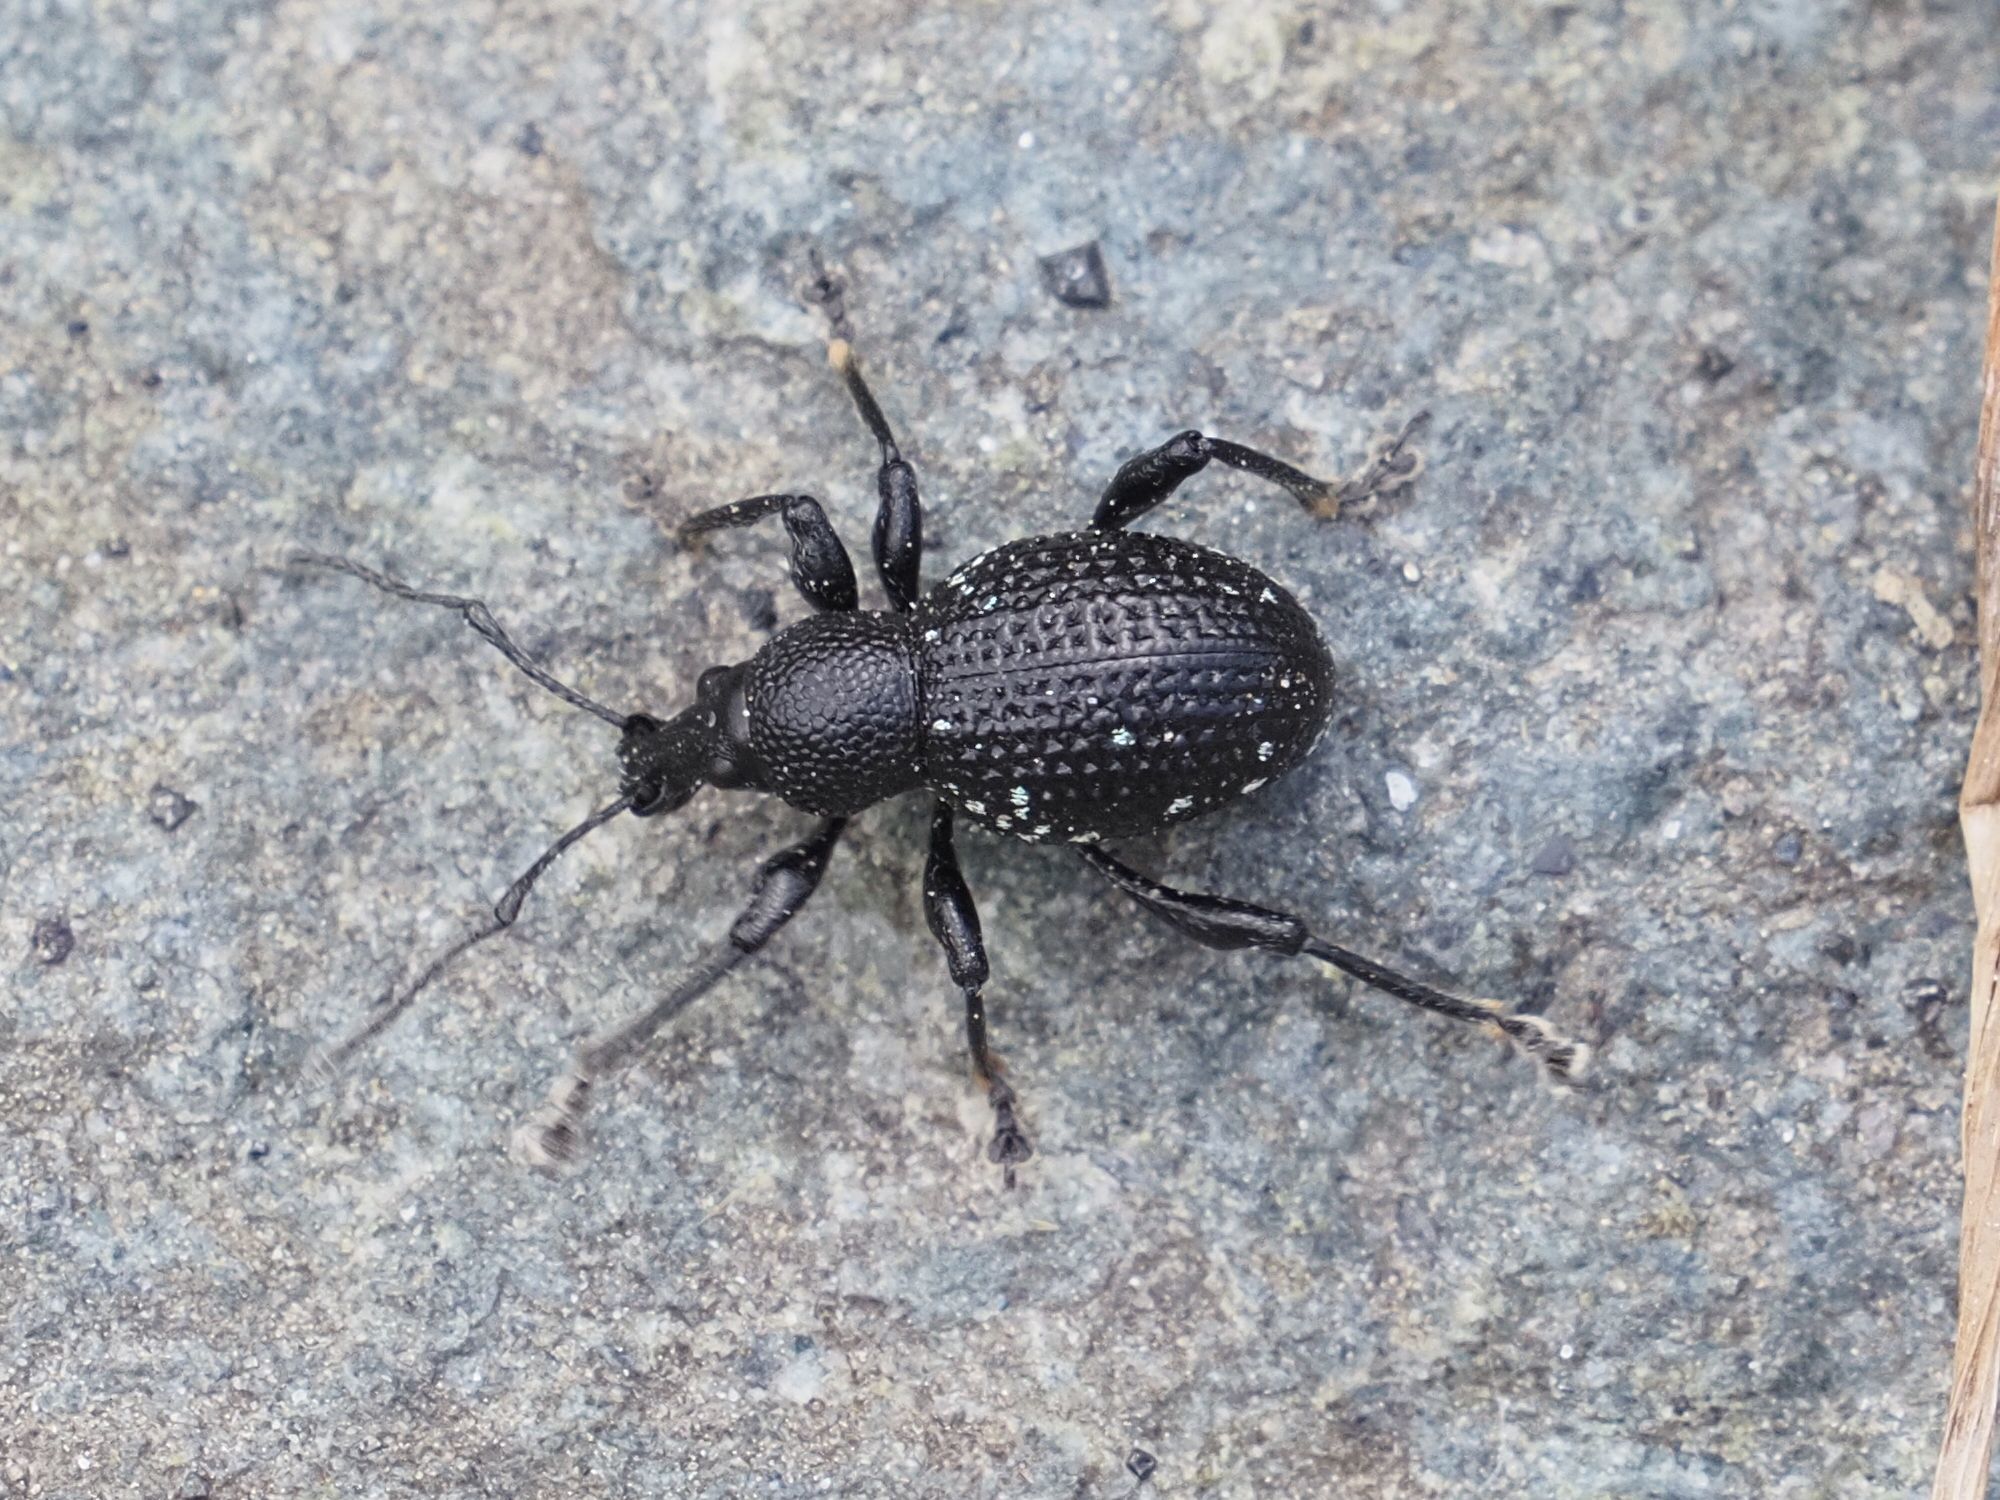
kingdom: Animalia
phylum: Arthropoda
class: Insecta
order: Coleoptera
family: Curculionidae
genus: Otiorhynchus
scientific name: Otiorhynchus gemmatus
